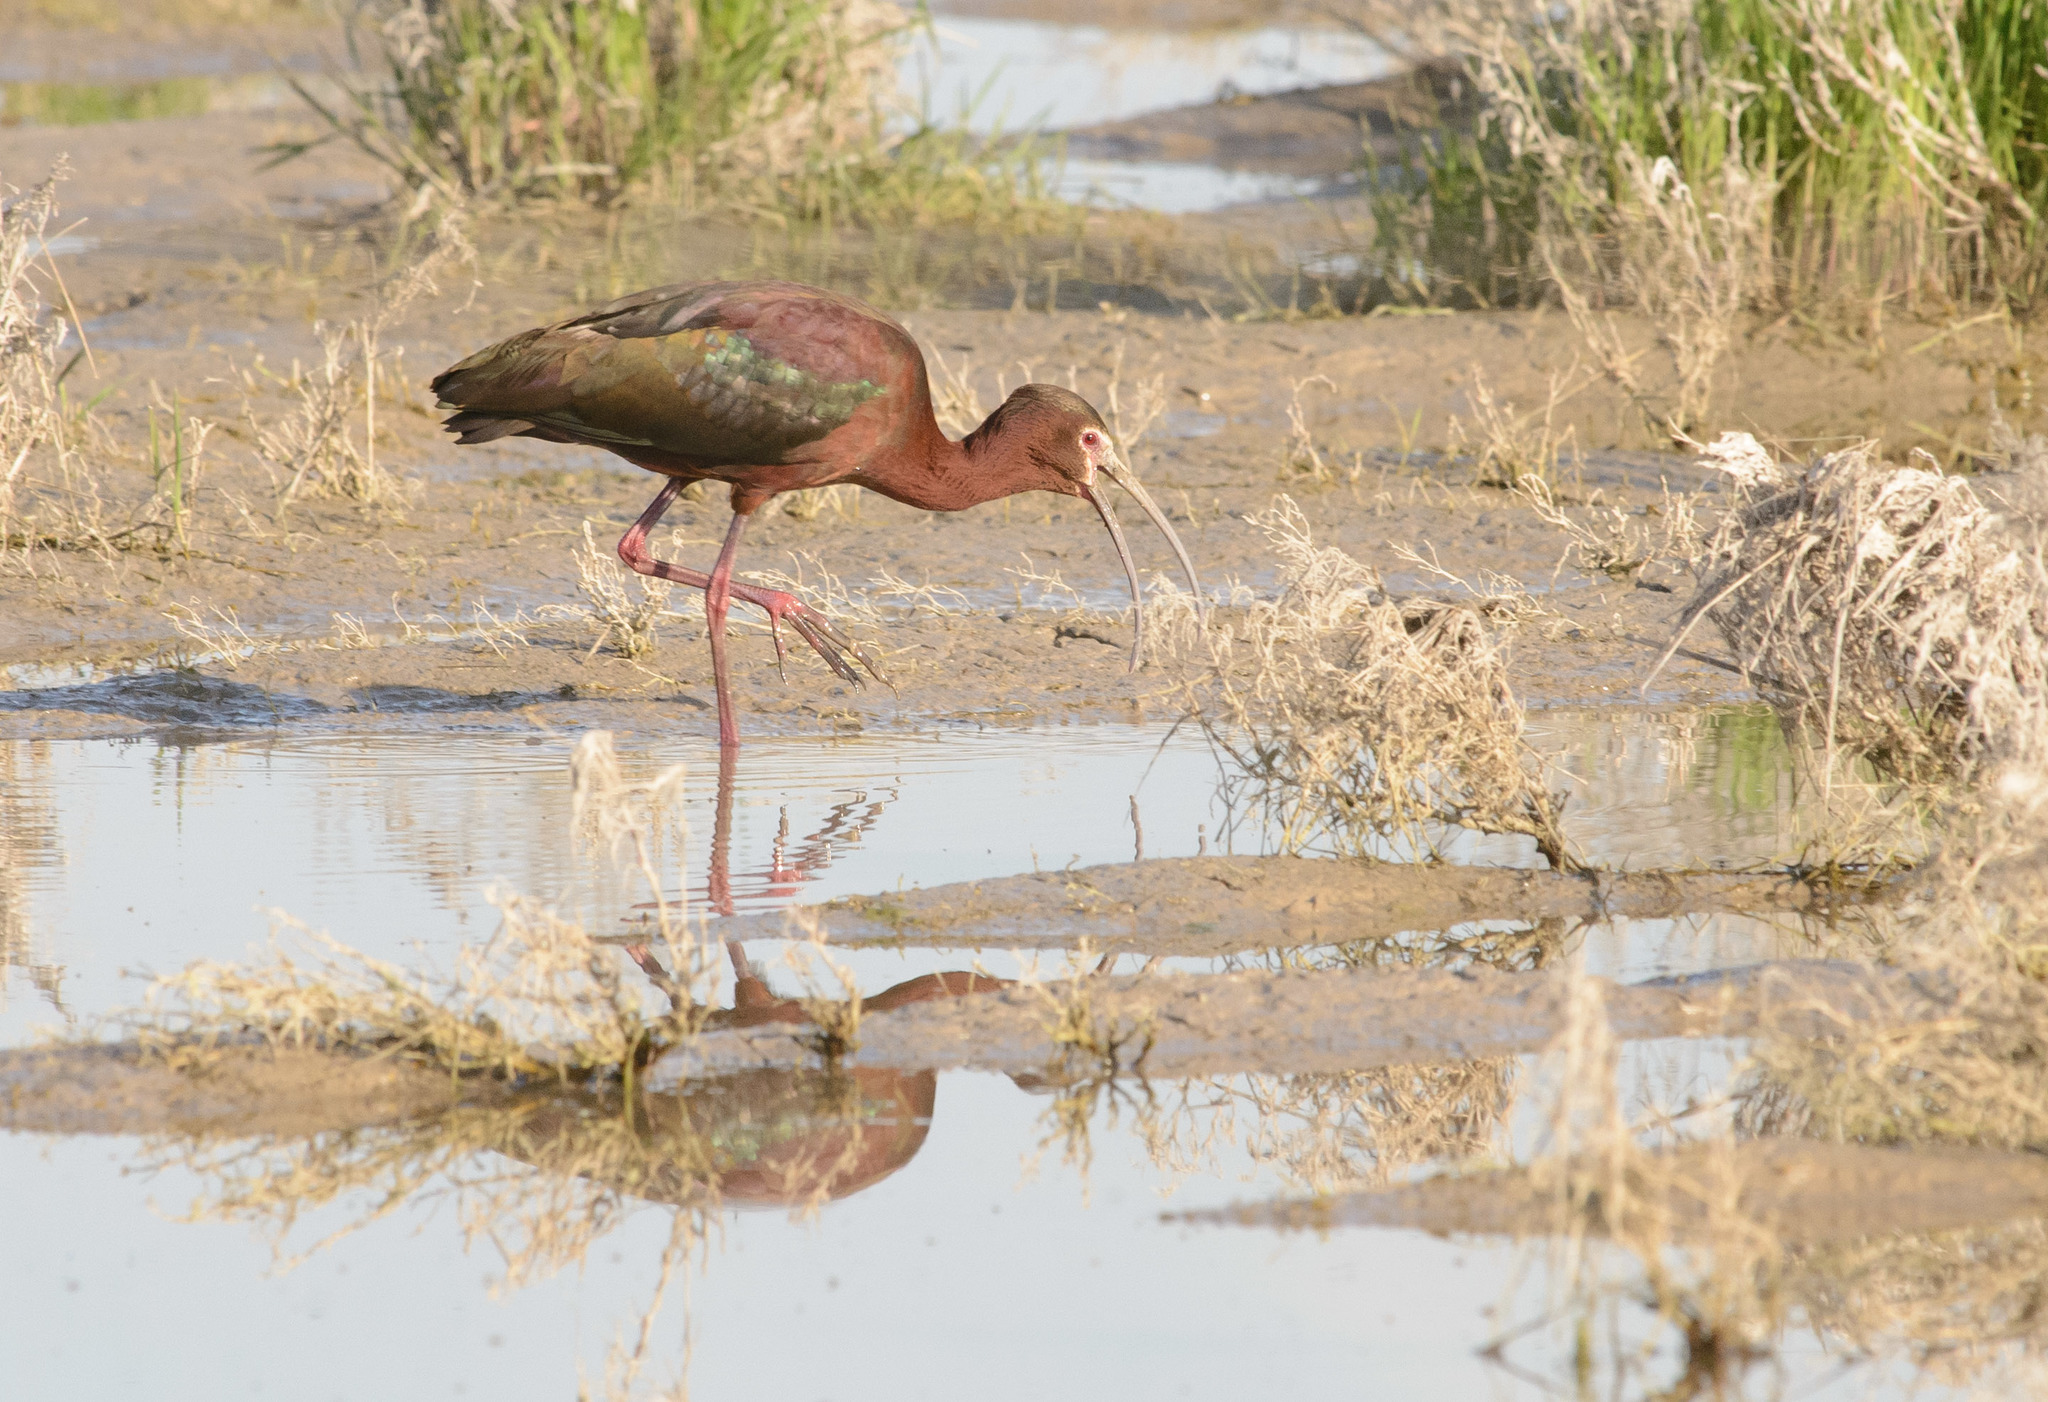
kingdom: Animalia
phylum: Chordata
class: Aves
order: Pelecaniformes
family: Threskiornithidae
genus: Plegadis
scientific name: Plegadis chihi
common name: White-faced ibis
